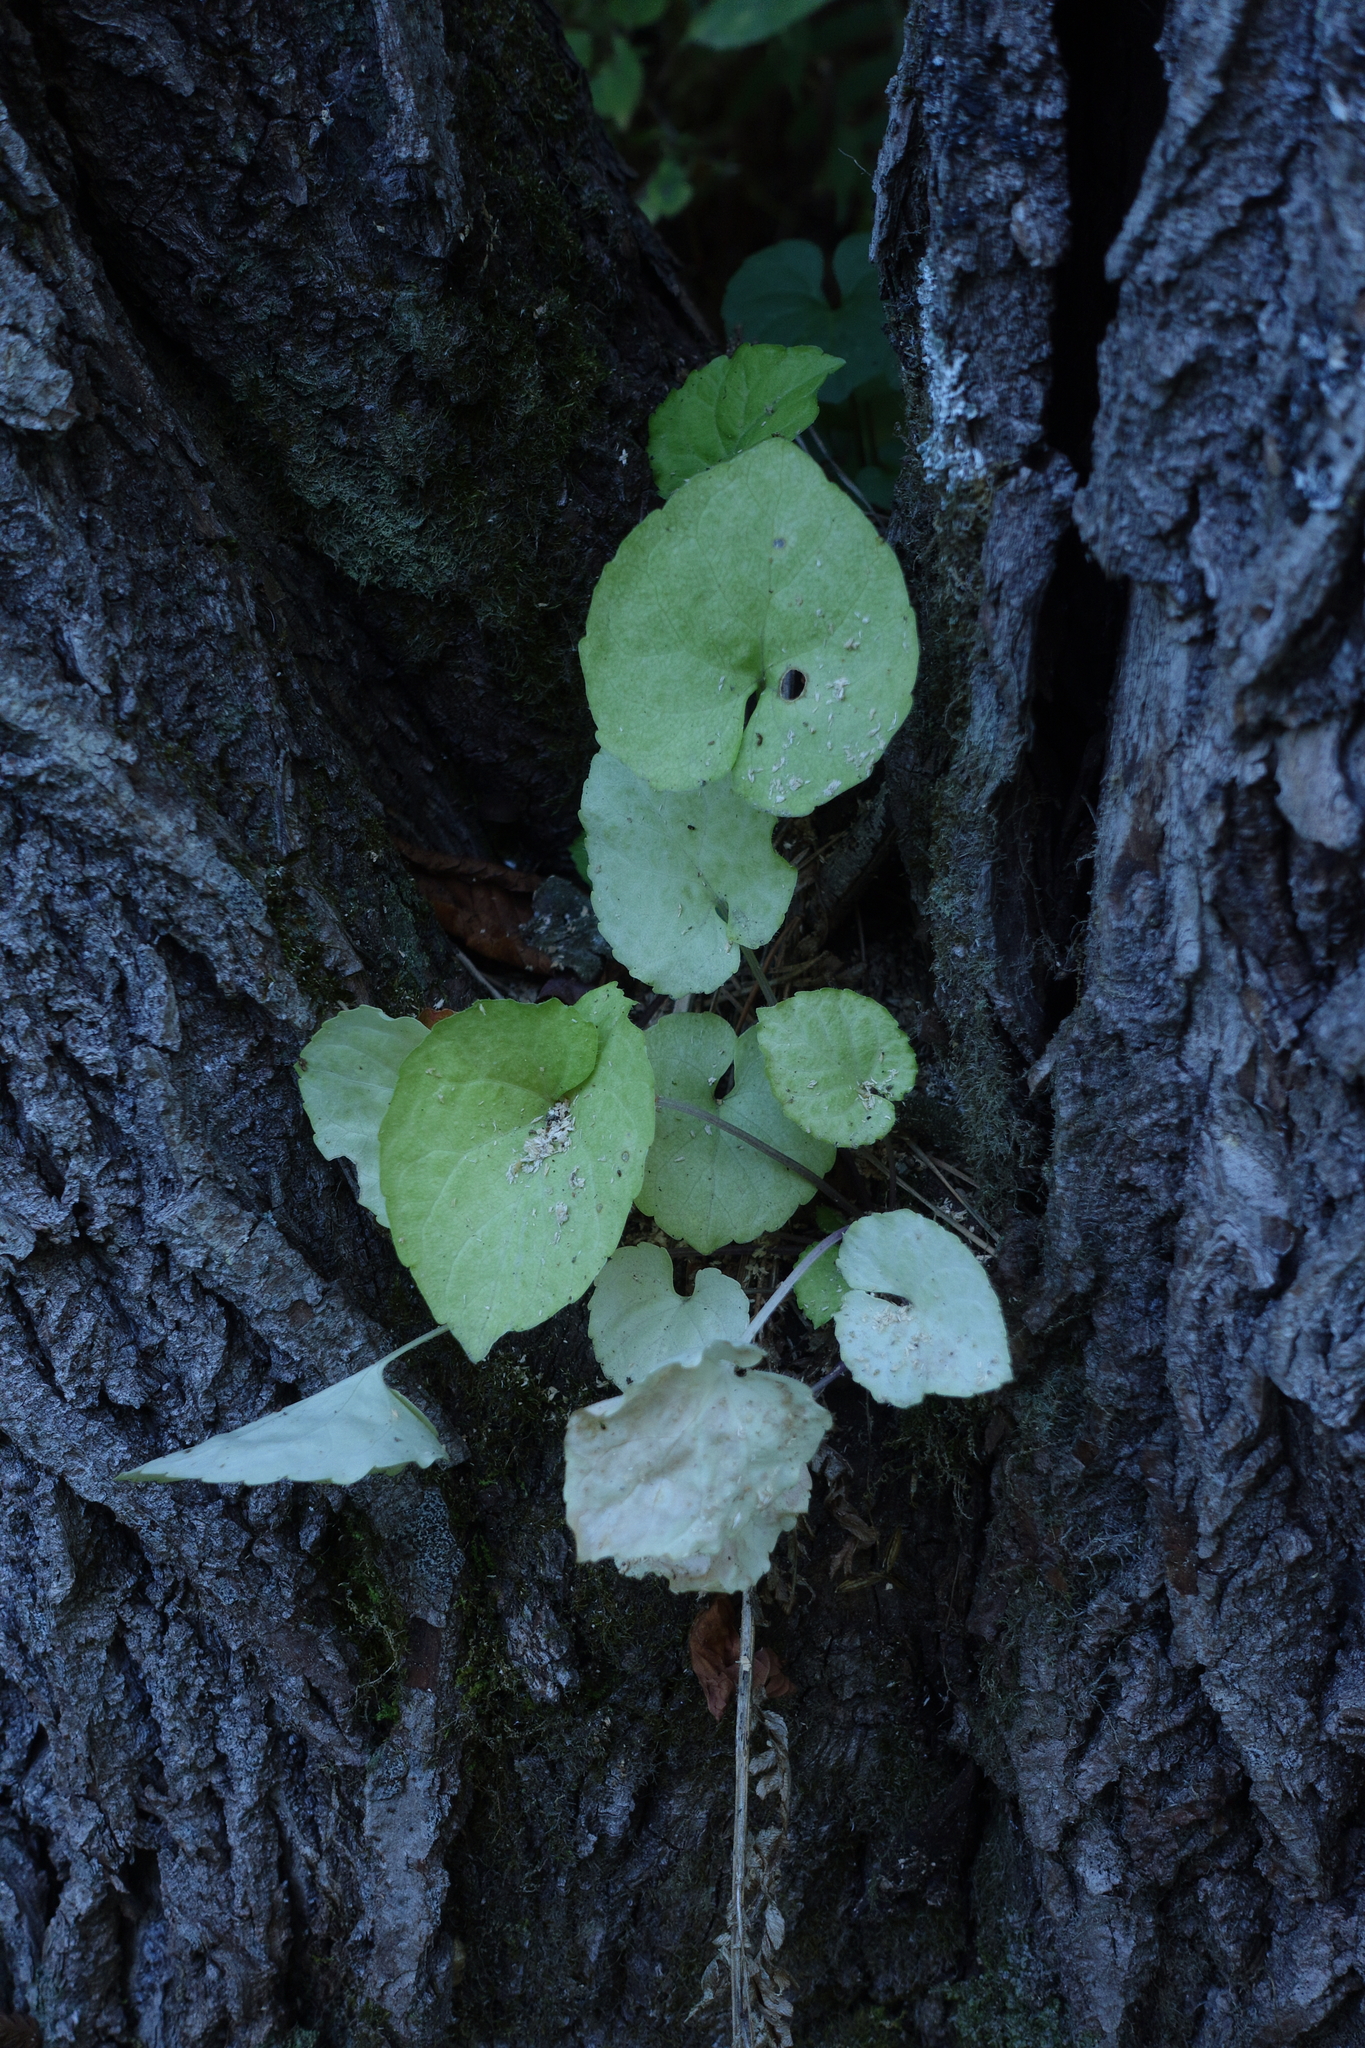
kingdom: Plantae
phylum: Tracheophyta
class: Magnoliopsida
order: Malpighiales
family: Violaceae
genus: Viola
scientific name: Viola selkirkii
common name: Selkirk's violet
